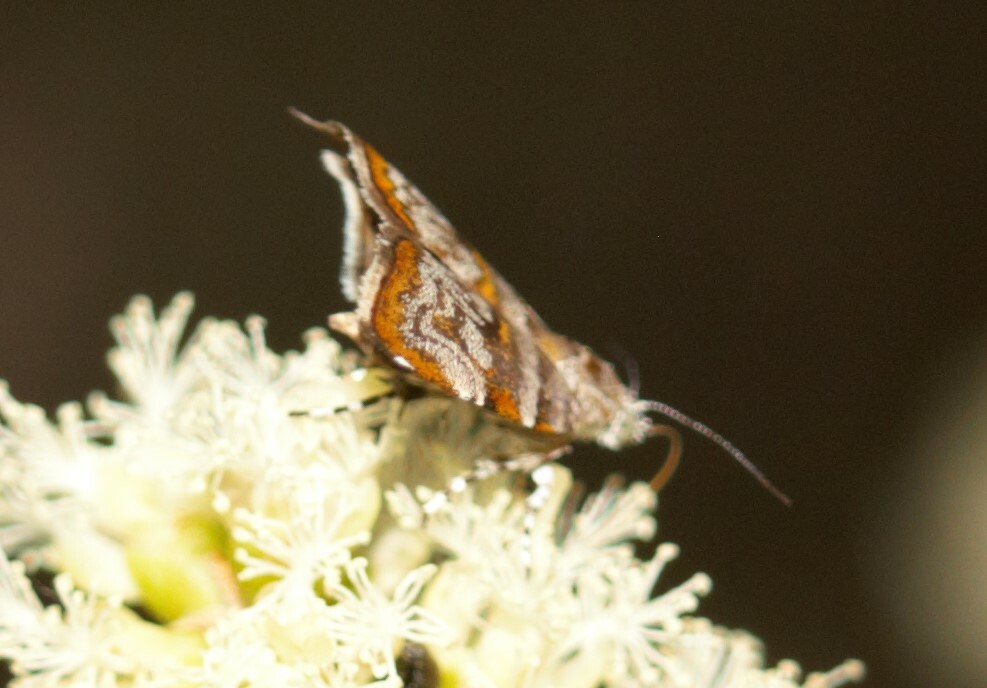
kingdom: Animalia
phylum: Arthropoda
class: Insecta
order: Lepidoptera
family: Choreutidae
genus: Choreutis
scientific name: Choreutis periploca
